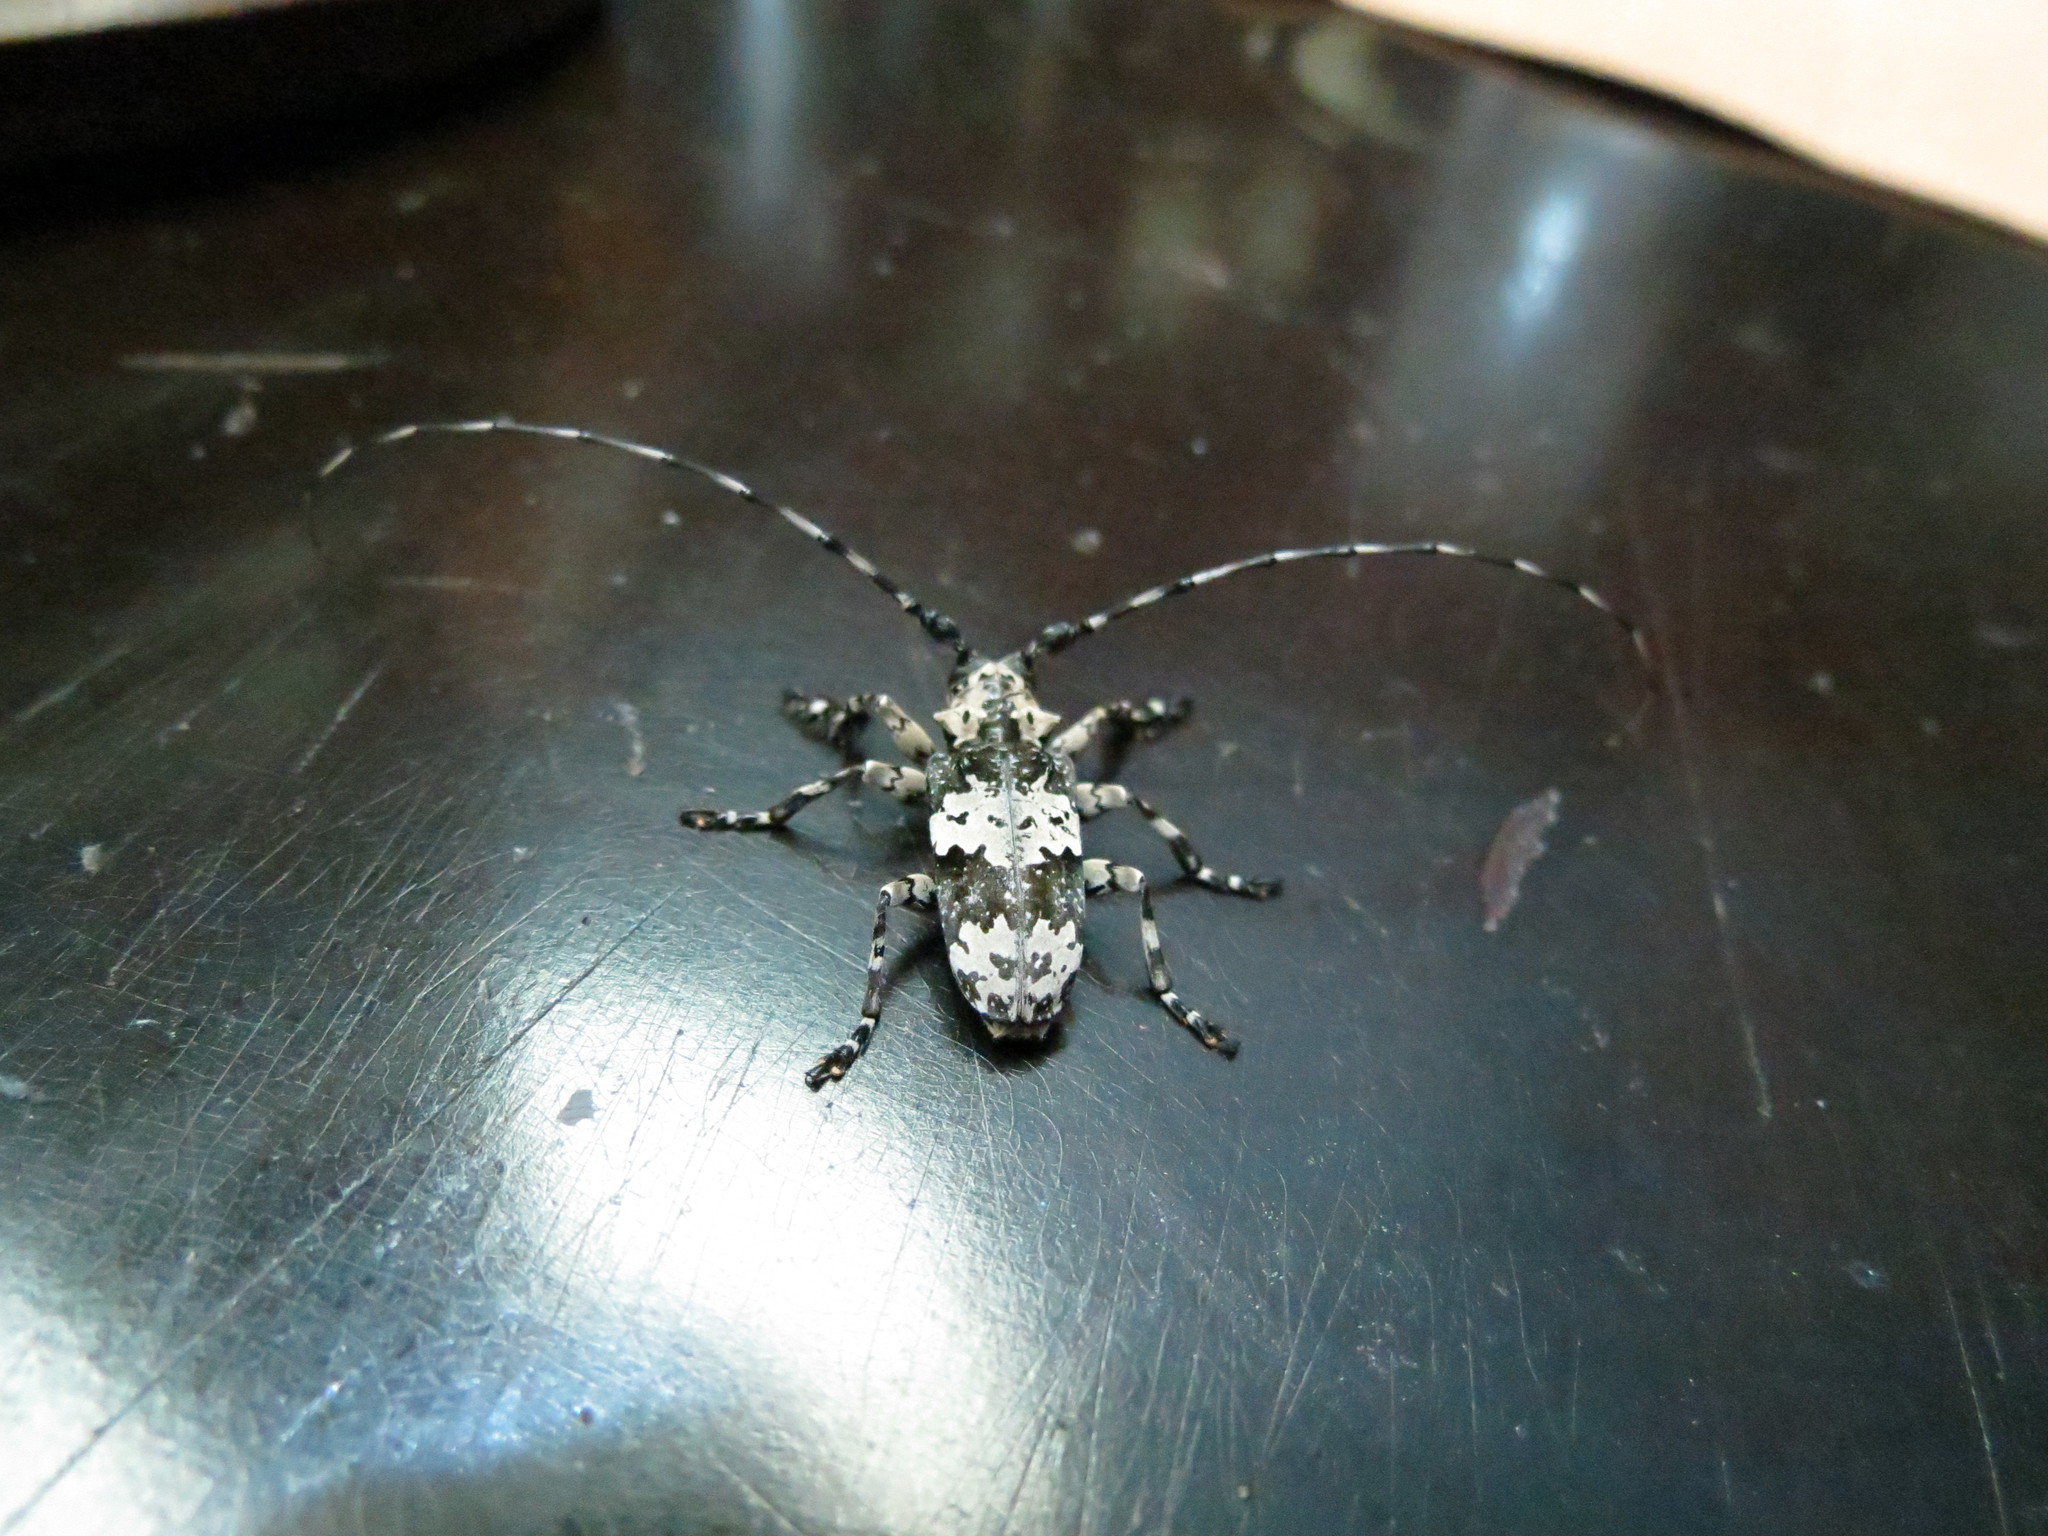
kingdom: Animalia
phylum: Arthropoda
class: Insecta
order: Coleoptera
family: Cerambycidae
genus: Lasiopezus
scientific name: Lasiopezus nigromaculatus
